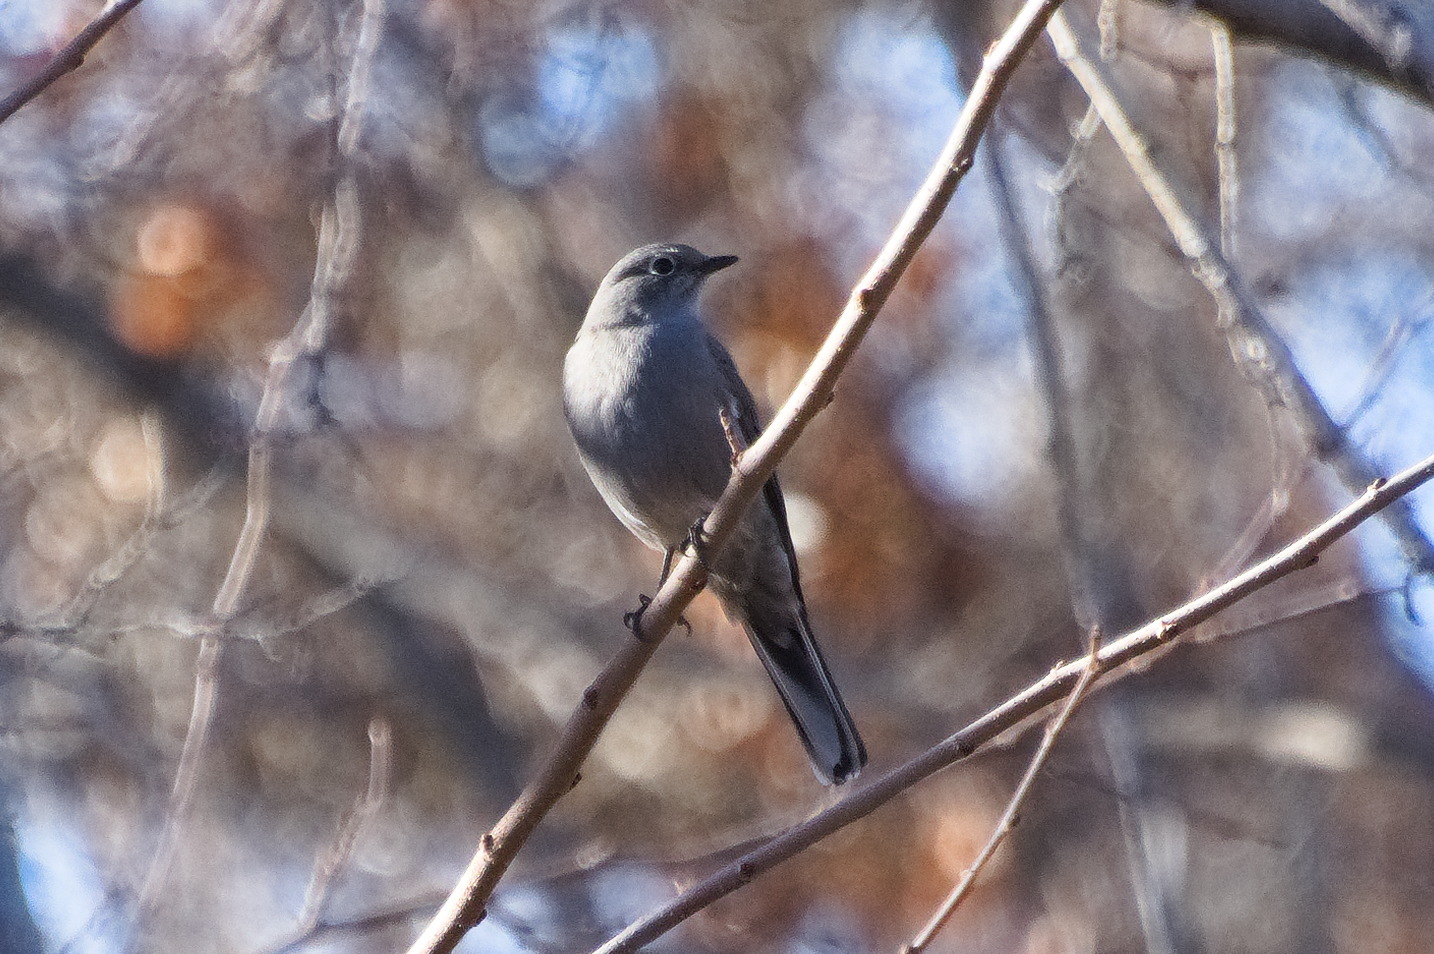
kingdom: Animalia
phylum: Chordata
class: Aves
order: Passeriformes
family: Turdidae
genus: Myadestes
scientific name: Myadestes townsendi
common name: Townsend's solitaire
